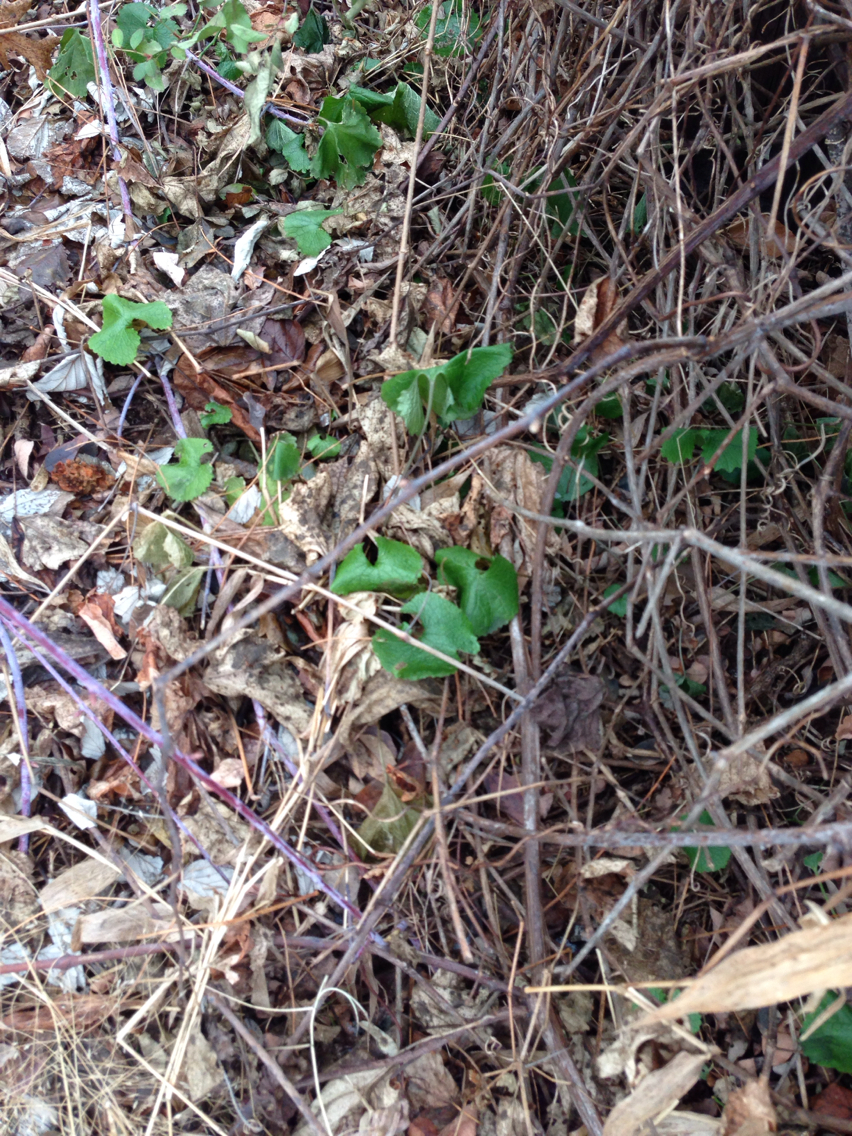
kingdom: Plantae
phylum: Tracheophyta
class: Magnoliopsida
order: Brassicales
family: Brassicaceae
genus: Alliaria
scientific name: Alliaria petiolata
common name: Garlic mustard
